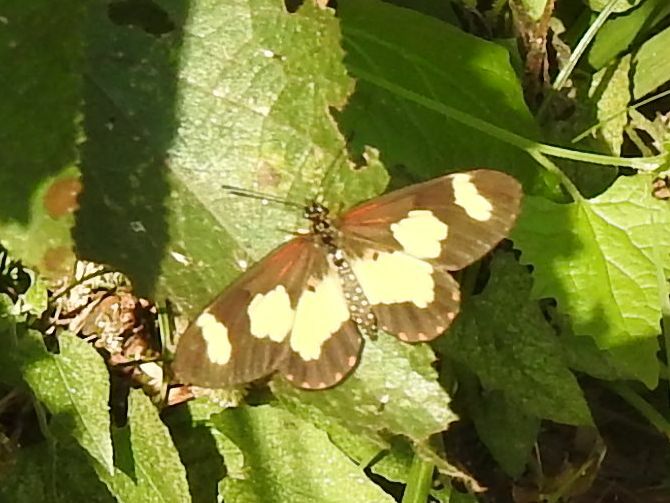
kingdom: Animalia
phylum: Arthropoda
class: Insecta
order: Lepidoptera
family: Nymphalidae
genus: Acraea
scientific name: Acraea cabira
